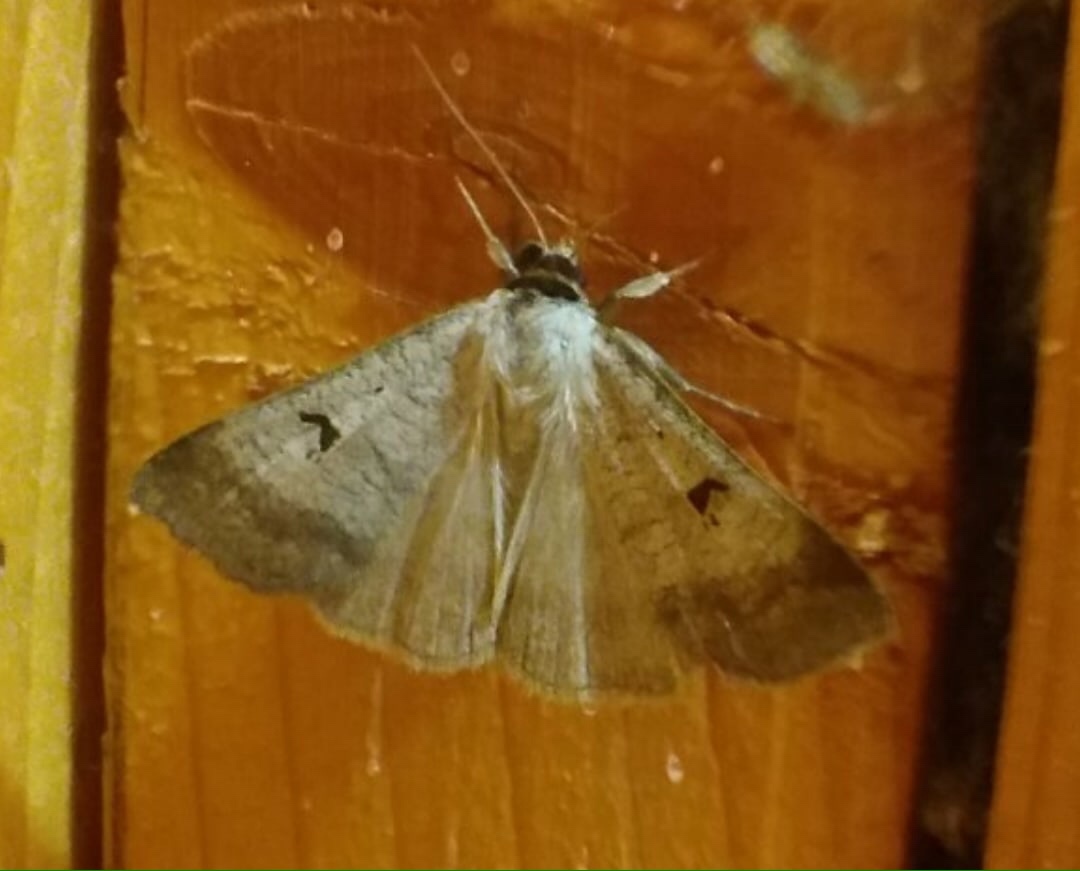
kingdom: Animalia
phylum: Arthropoda
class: Insecta
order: Lepidoptera
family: Erebidae
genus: Lygephila
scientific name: Lygephila pastinum
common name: Blackneck
